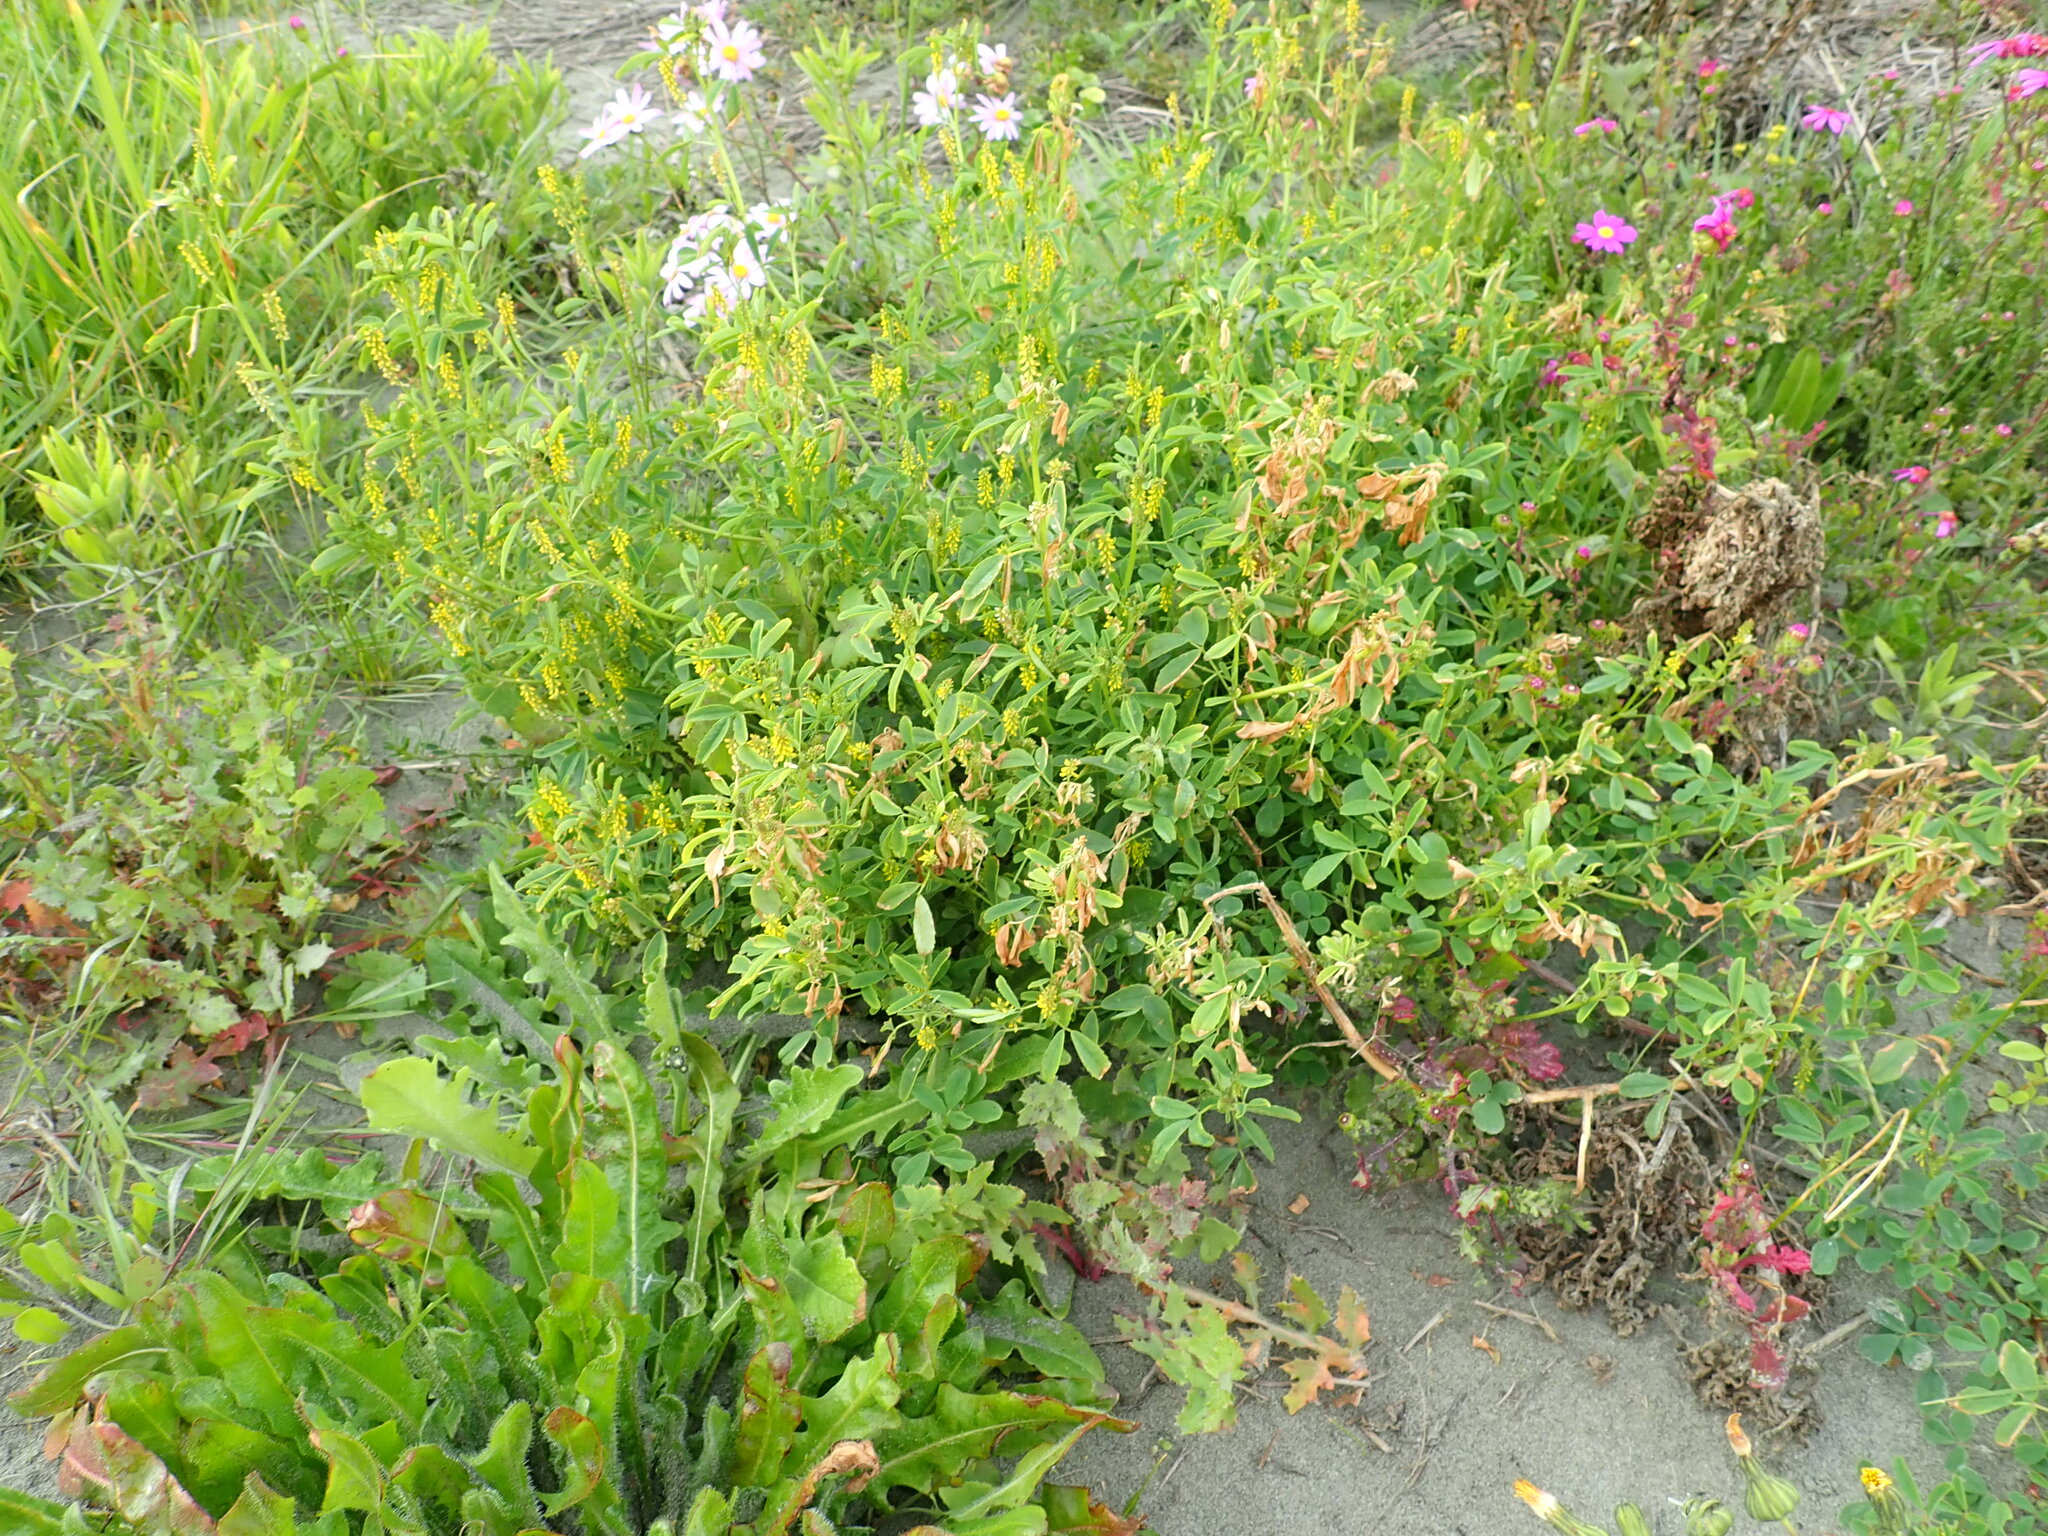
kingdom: Plantae
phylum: Tracheophyta
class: Magnoliopsida
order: Fabales
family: Fabaceae
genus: Melilotus
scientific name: Melilotus indicus
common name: Small melilot
